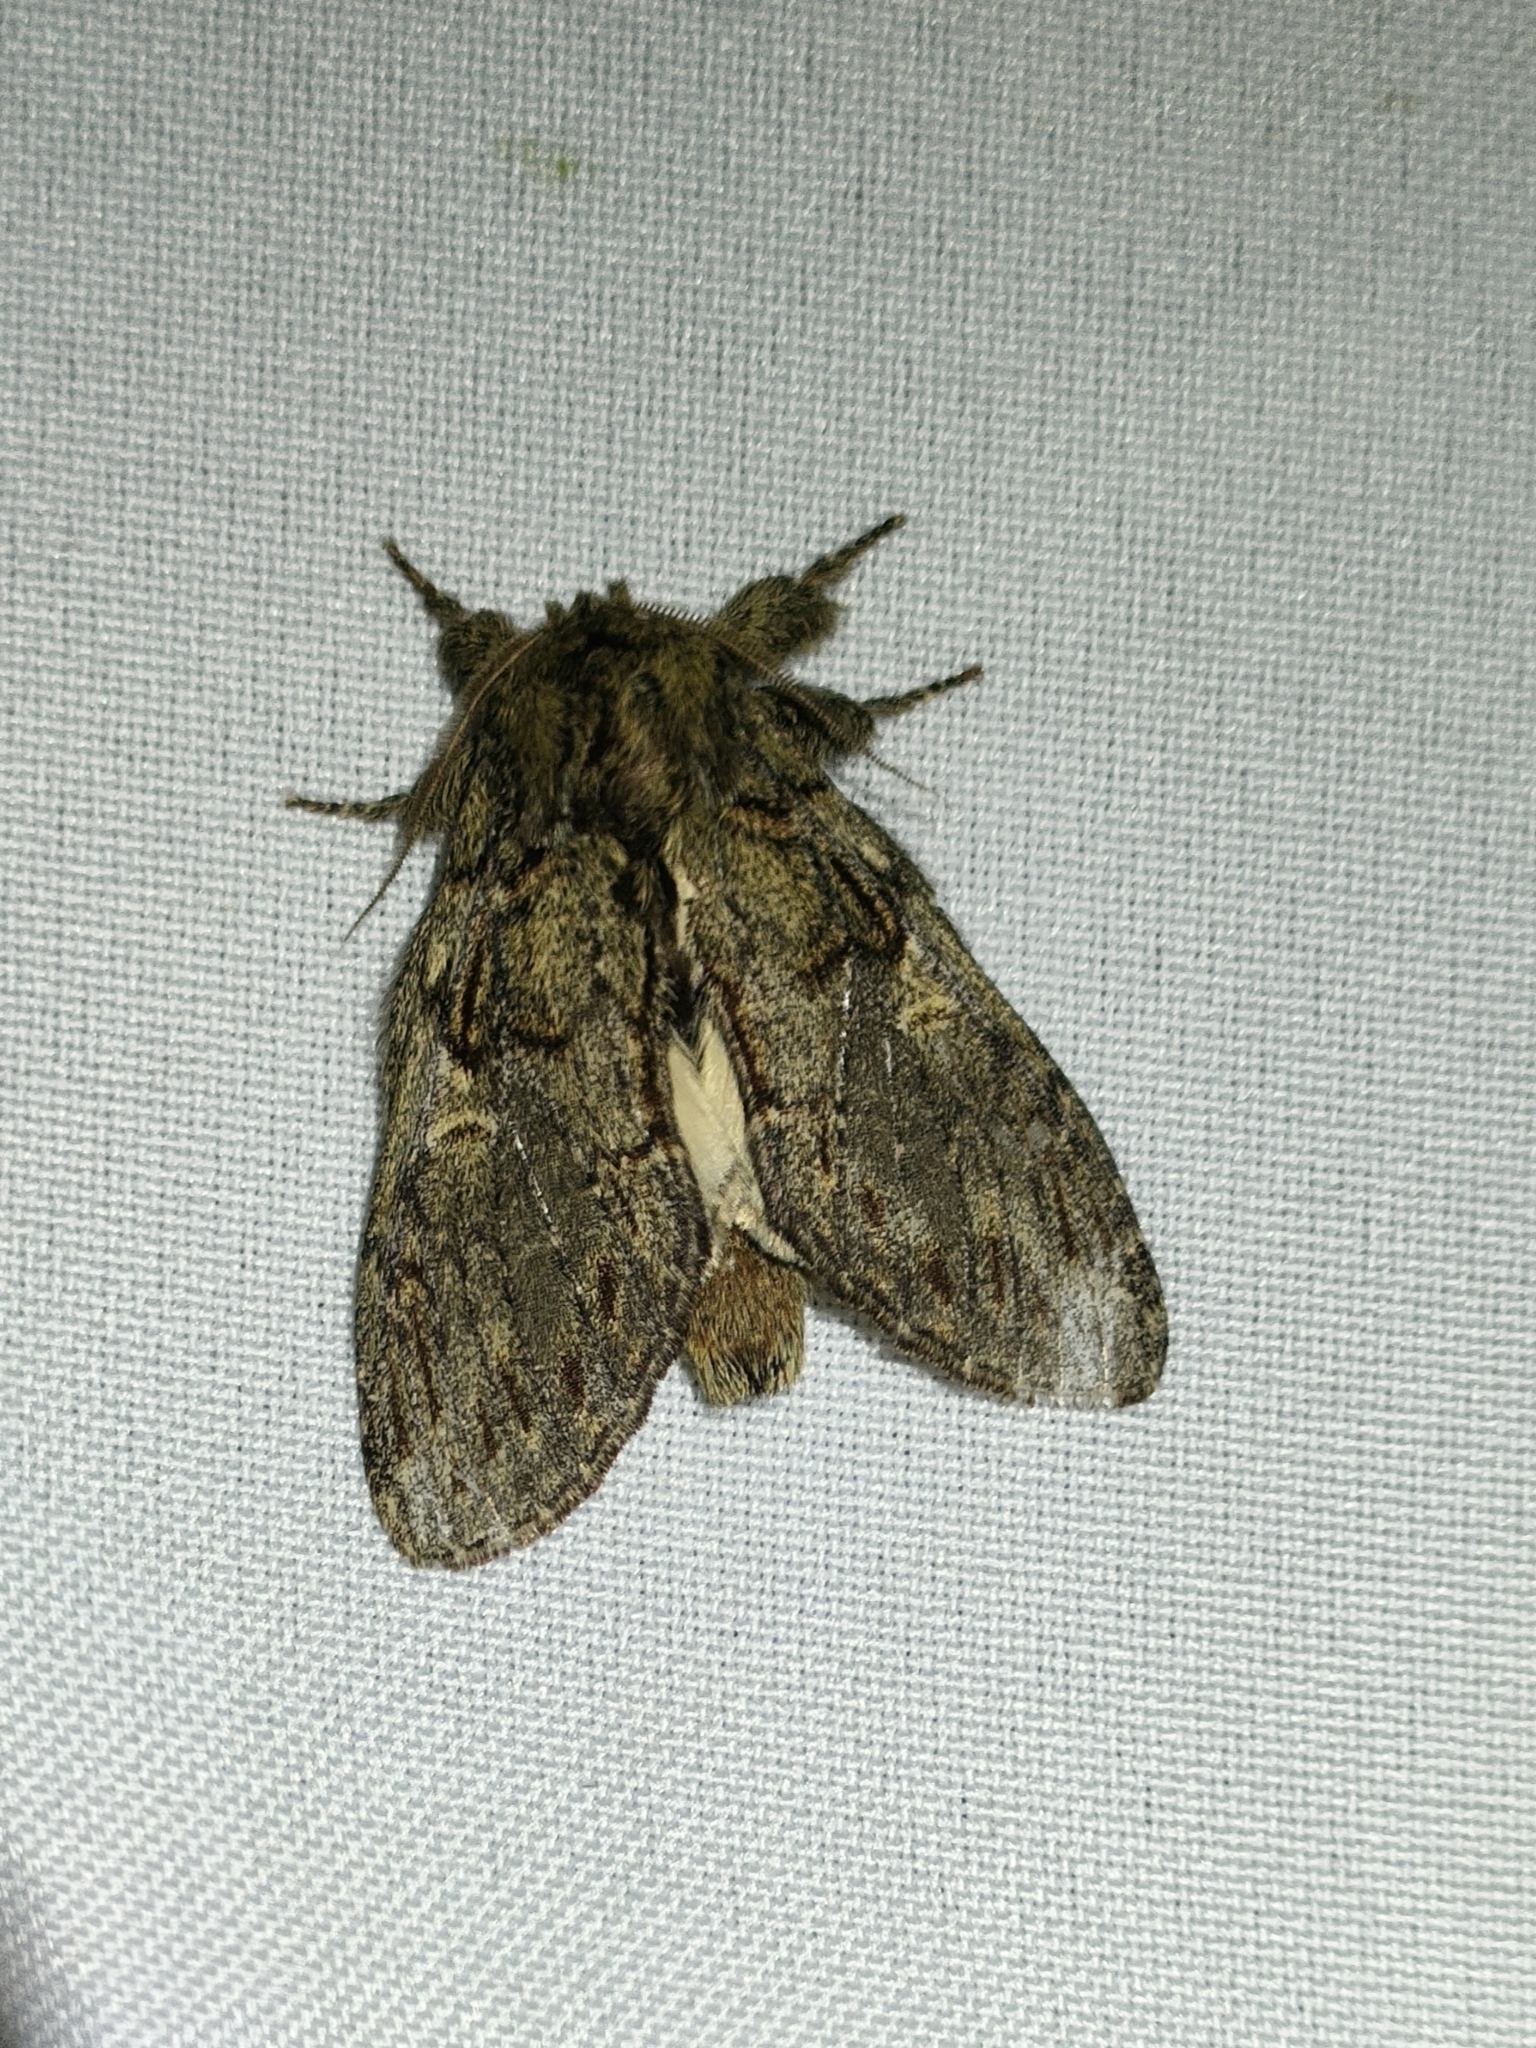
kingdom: Animalia
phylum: Arthropoda
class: Insecta
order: Lepidoptera
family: Notodontidae
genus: Peridea
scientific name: Peridea anceps
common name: Great prominent
